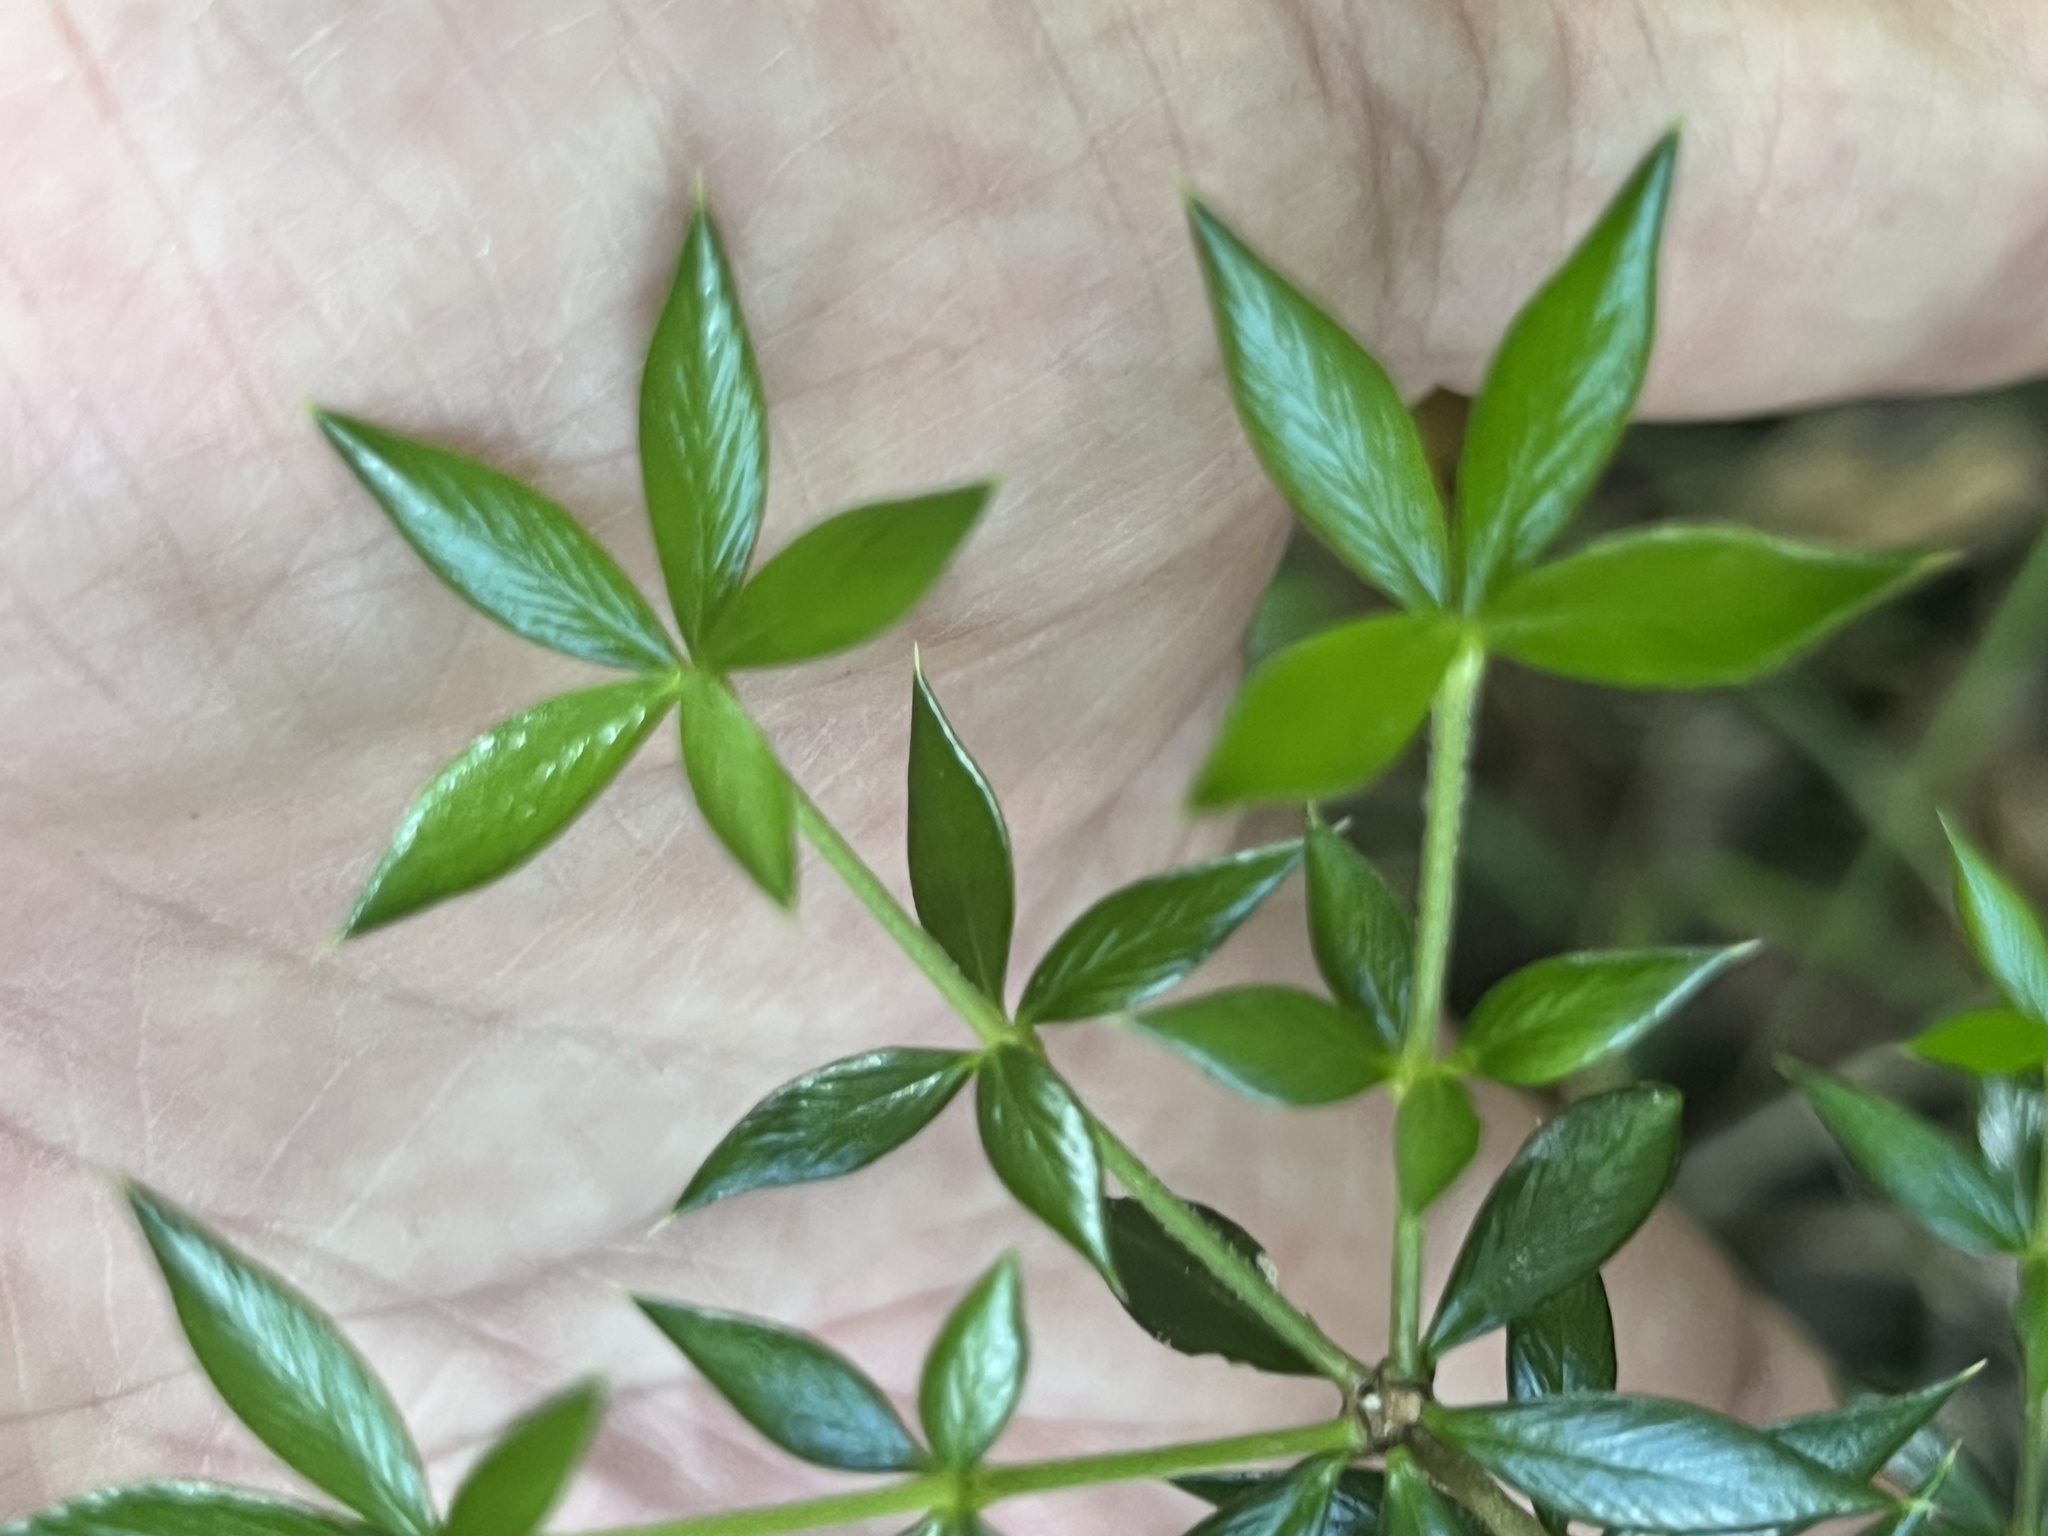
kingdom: Plantae
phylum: Tracheophyta
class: Magnoliopsida
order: Gentianales
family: Apocynaceae
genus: Alyxia
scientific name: Alyxia ruscifolia
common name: Chainfruit
